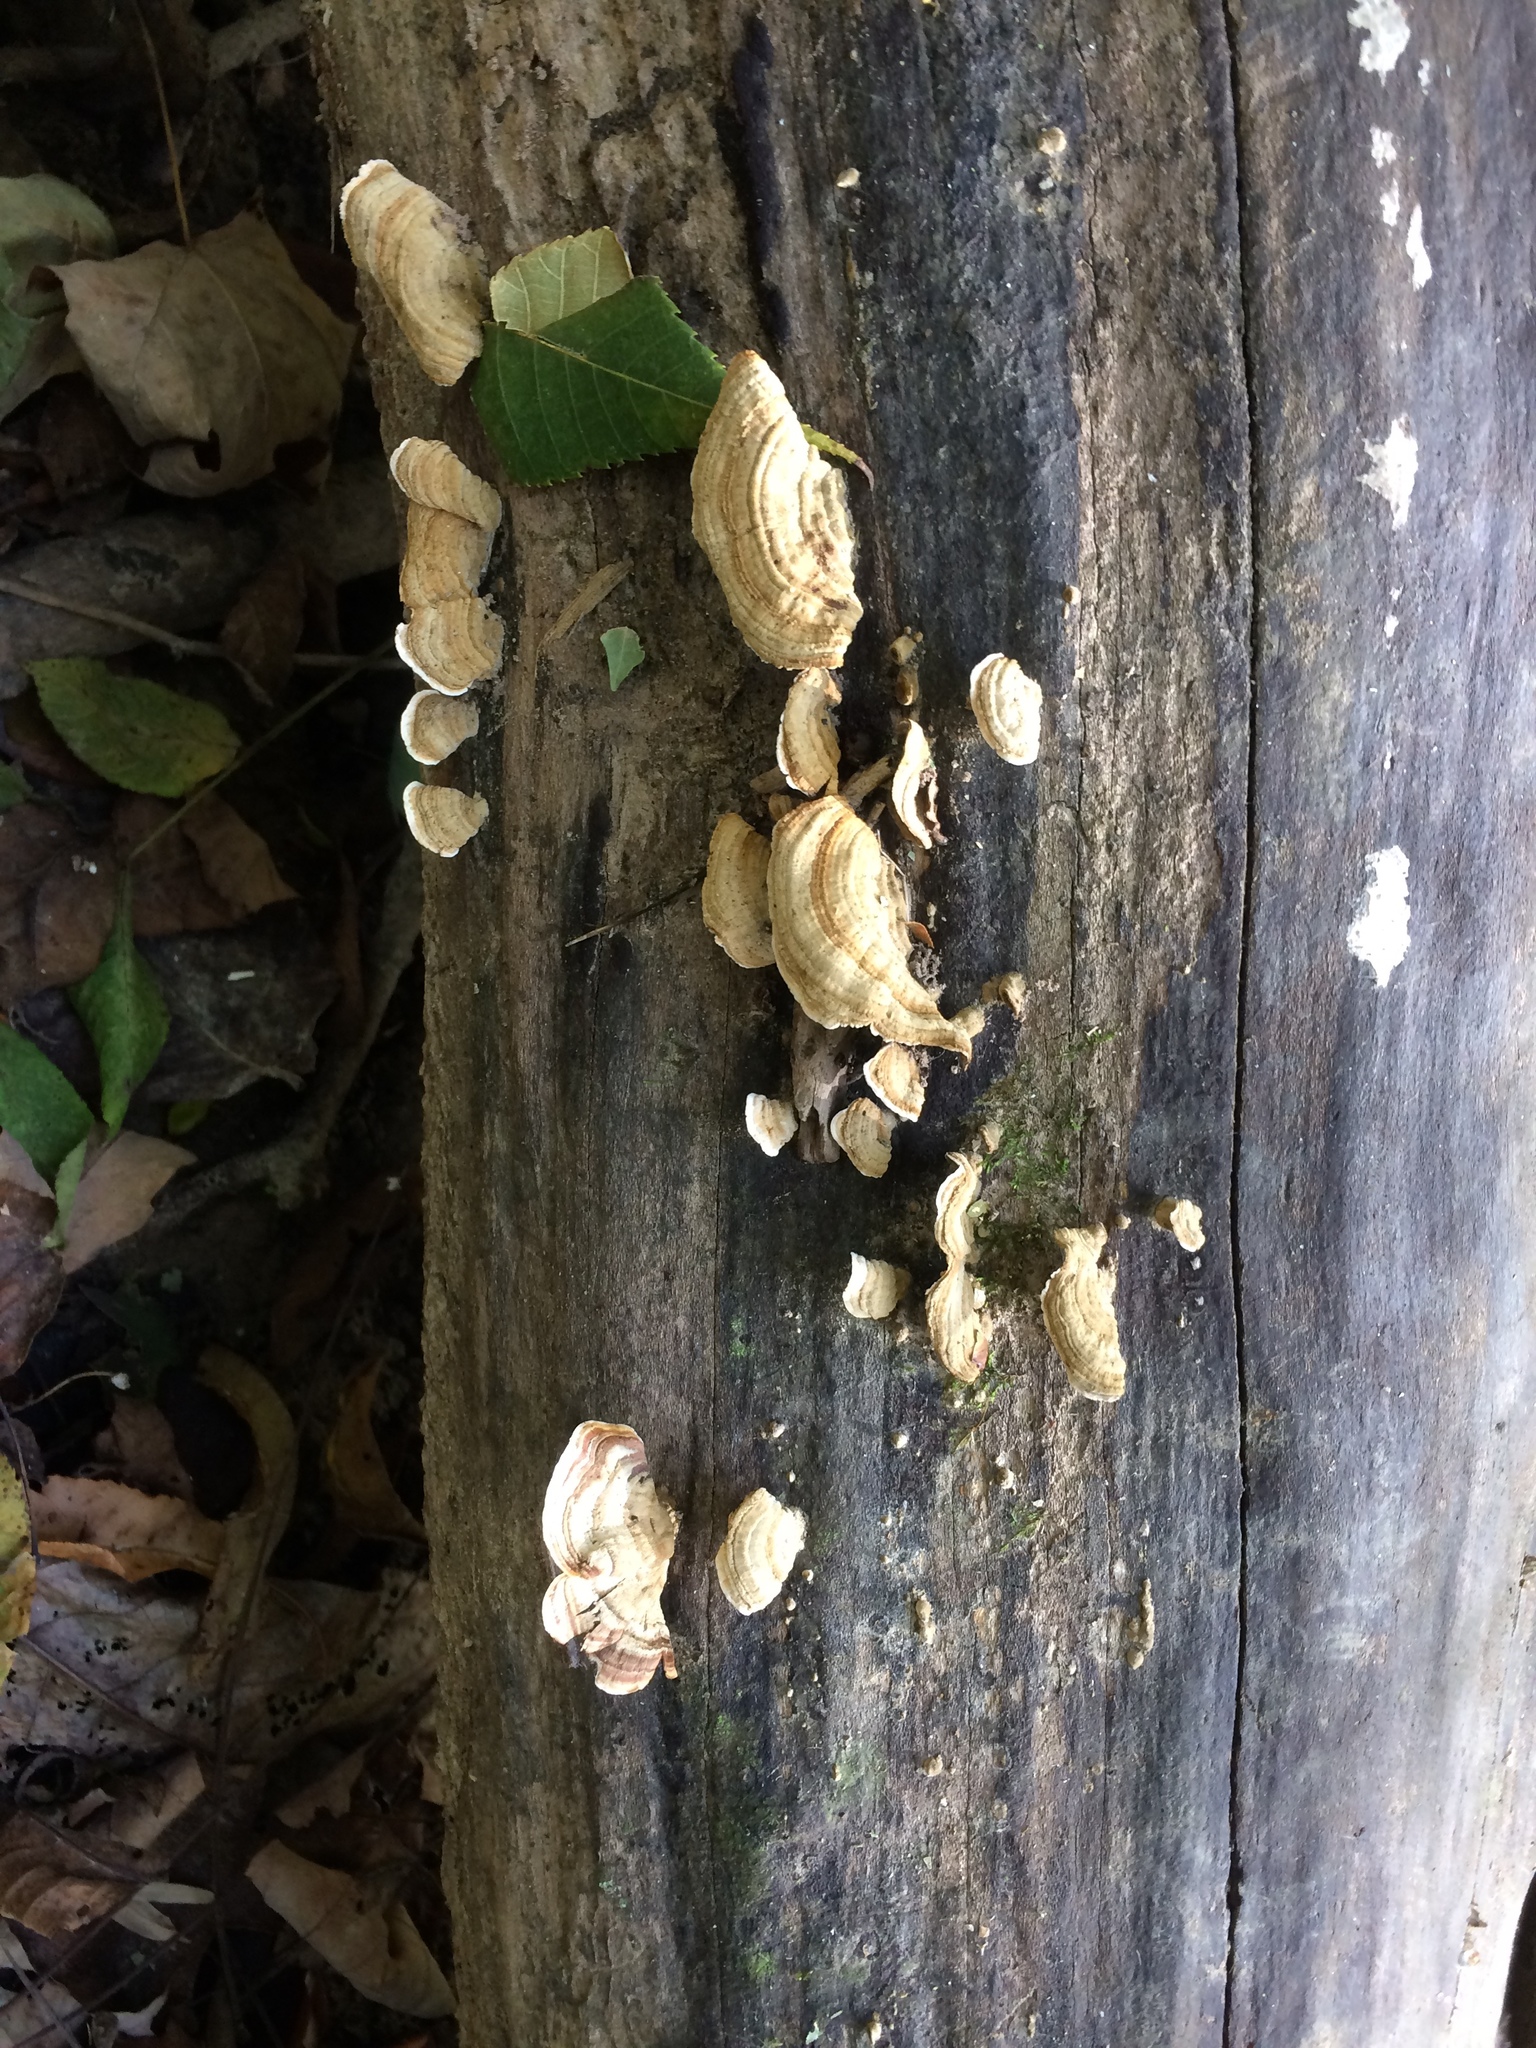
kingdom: Fungi
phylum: Basidiomycota
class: Agaricomycetes
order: Russulales
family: Stereaceae
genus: Stereum
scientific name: Stereum hirsutum
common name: Hairy curtain crust
